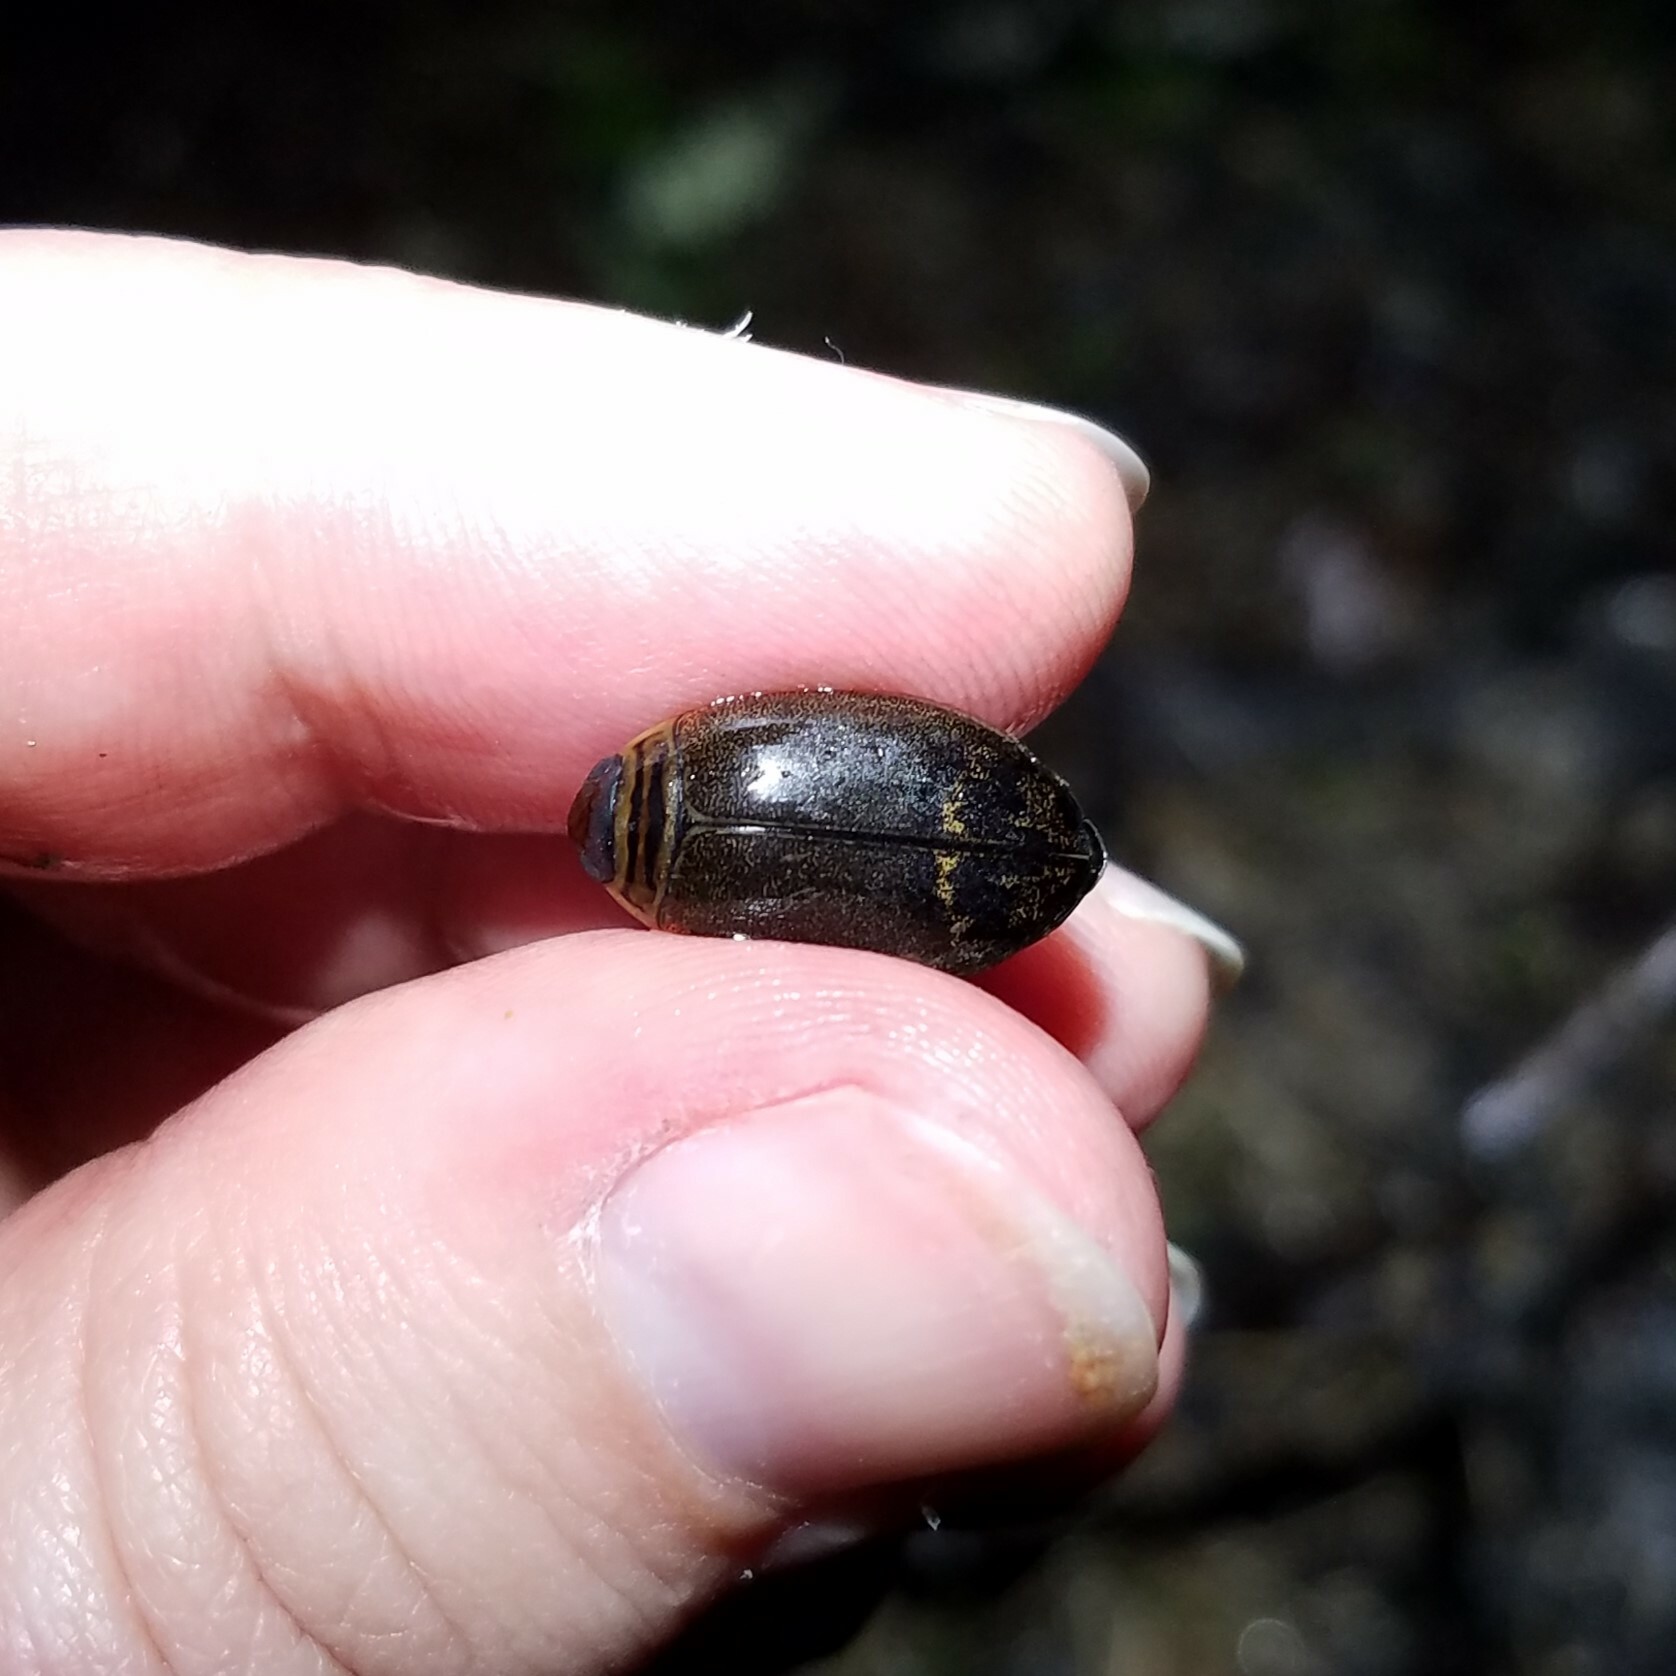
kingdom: Animalia
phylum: Arthropoda
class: Insecta
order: Coleoptera
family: Dytiscidae
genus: Acilius
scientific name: Acilius fraternus
